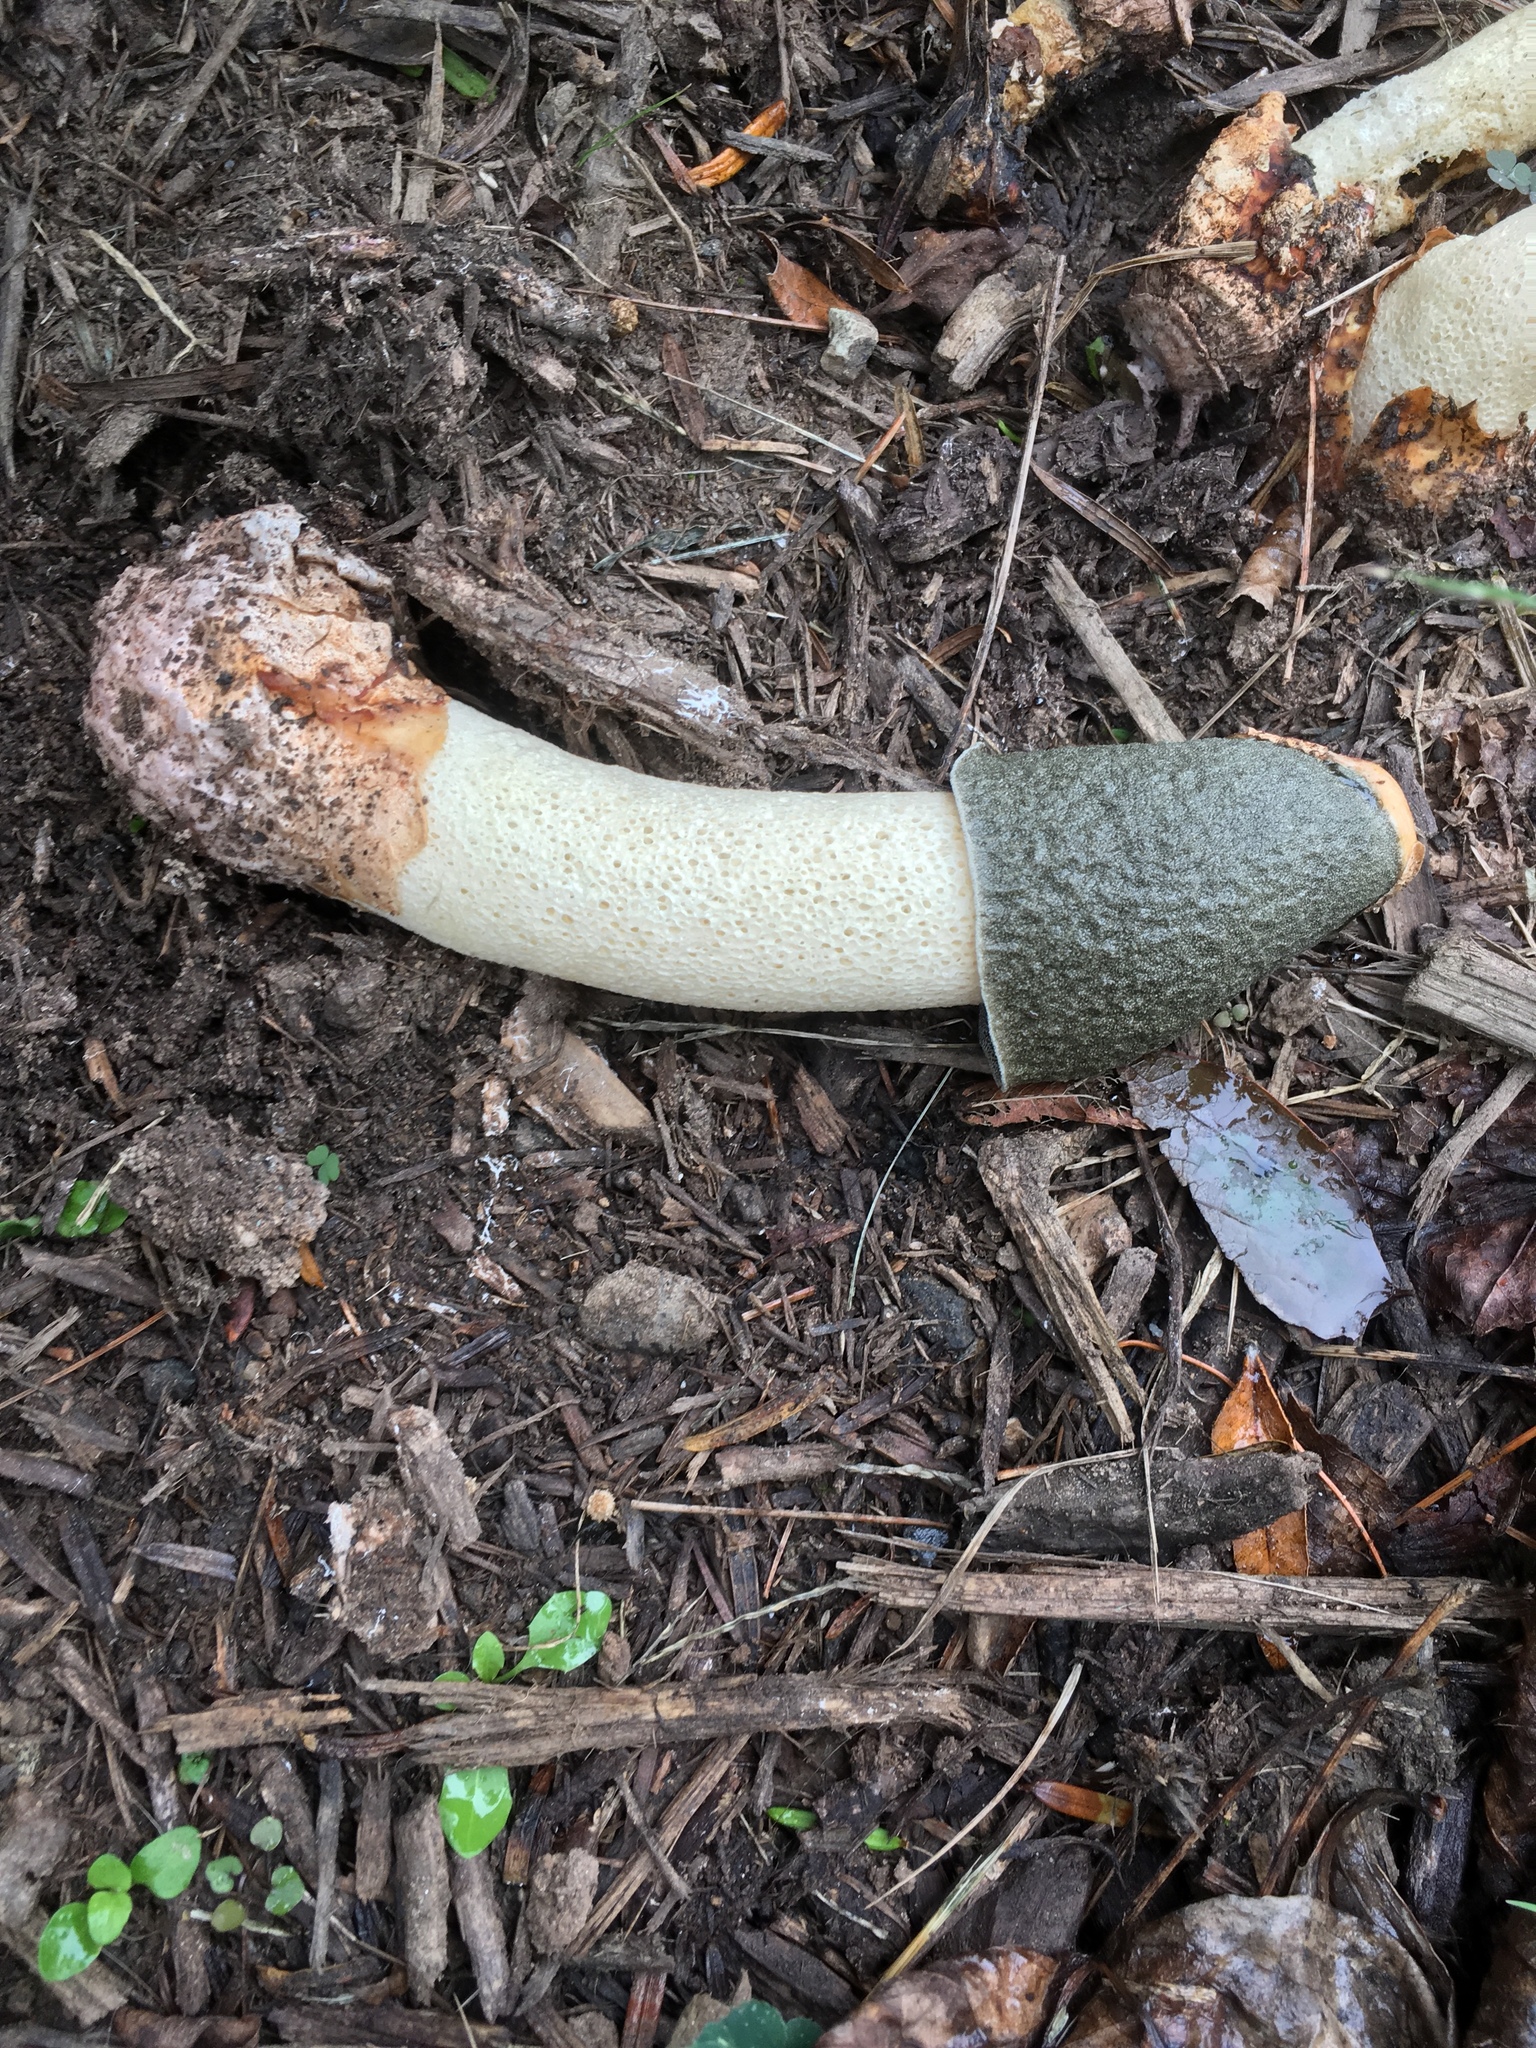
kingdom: Fungi
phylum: Basidiomycota
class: Agaricomycetes
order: Phallales
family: Phallaceae
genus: Phallus
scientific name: Phallus ravenelii
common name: Ravenel's stinkhorn
